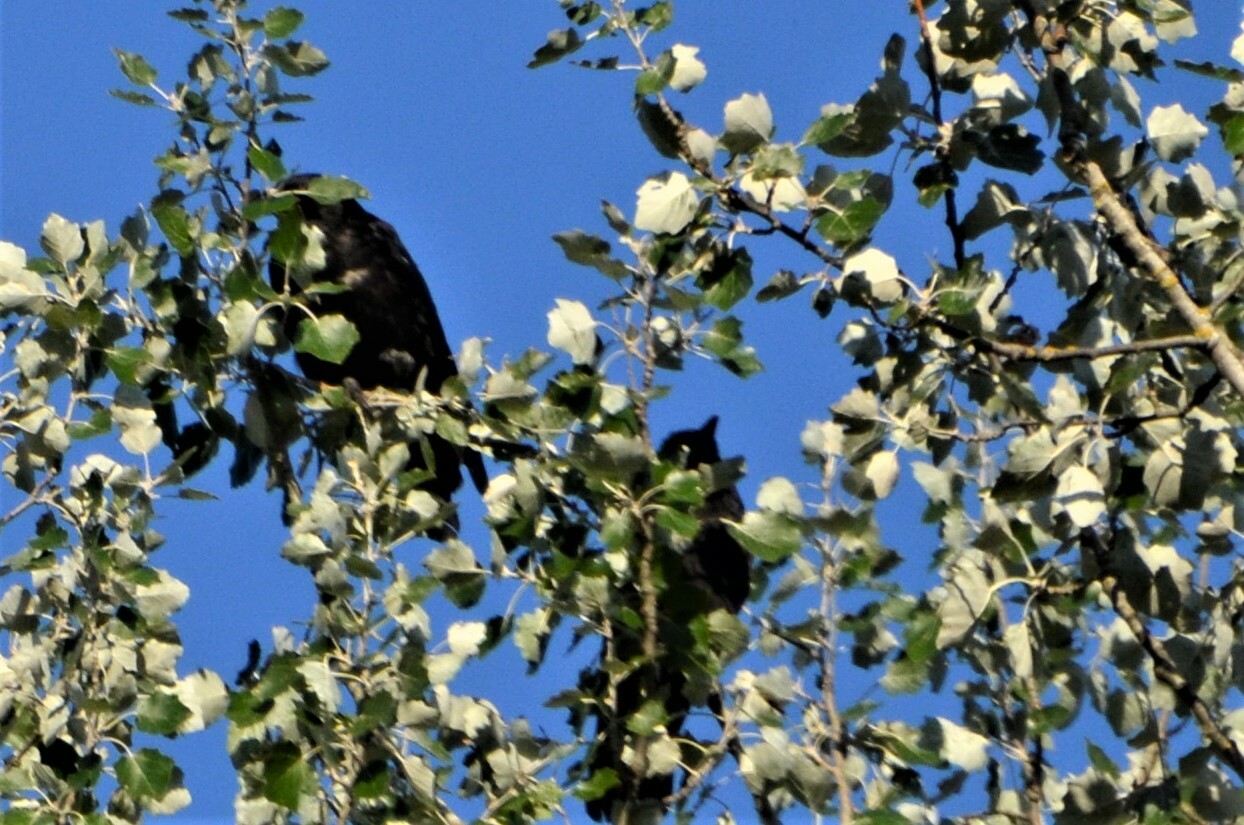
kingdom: Animalia
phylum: Chordata
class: Aves
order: Passeriformes
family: Corvidae
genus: Corvus
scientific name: Corvus
